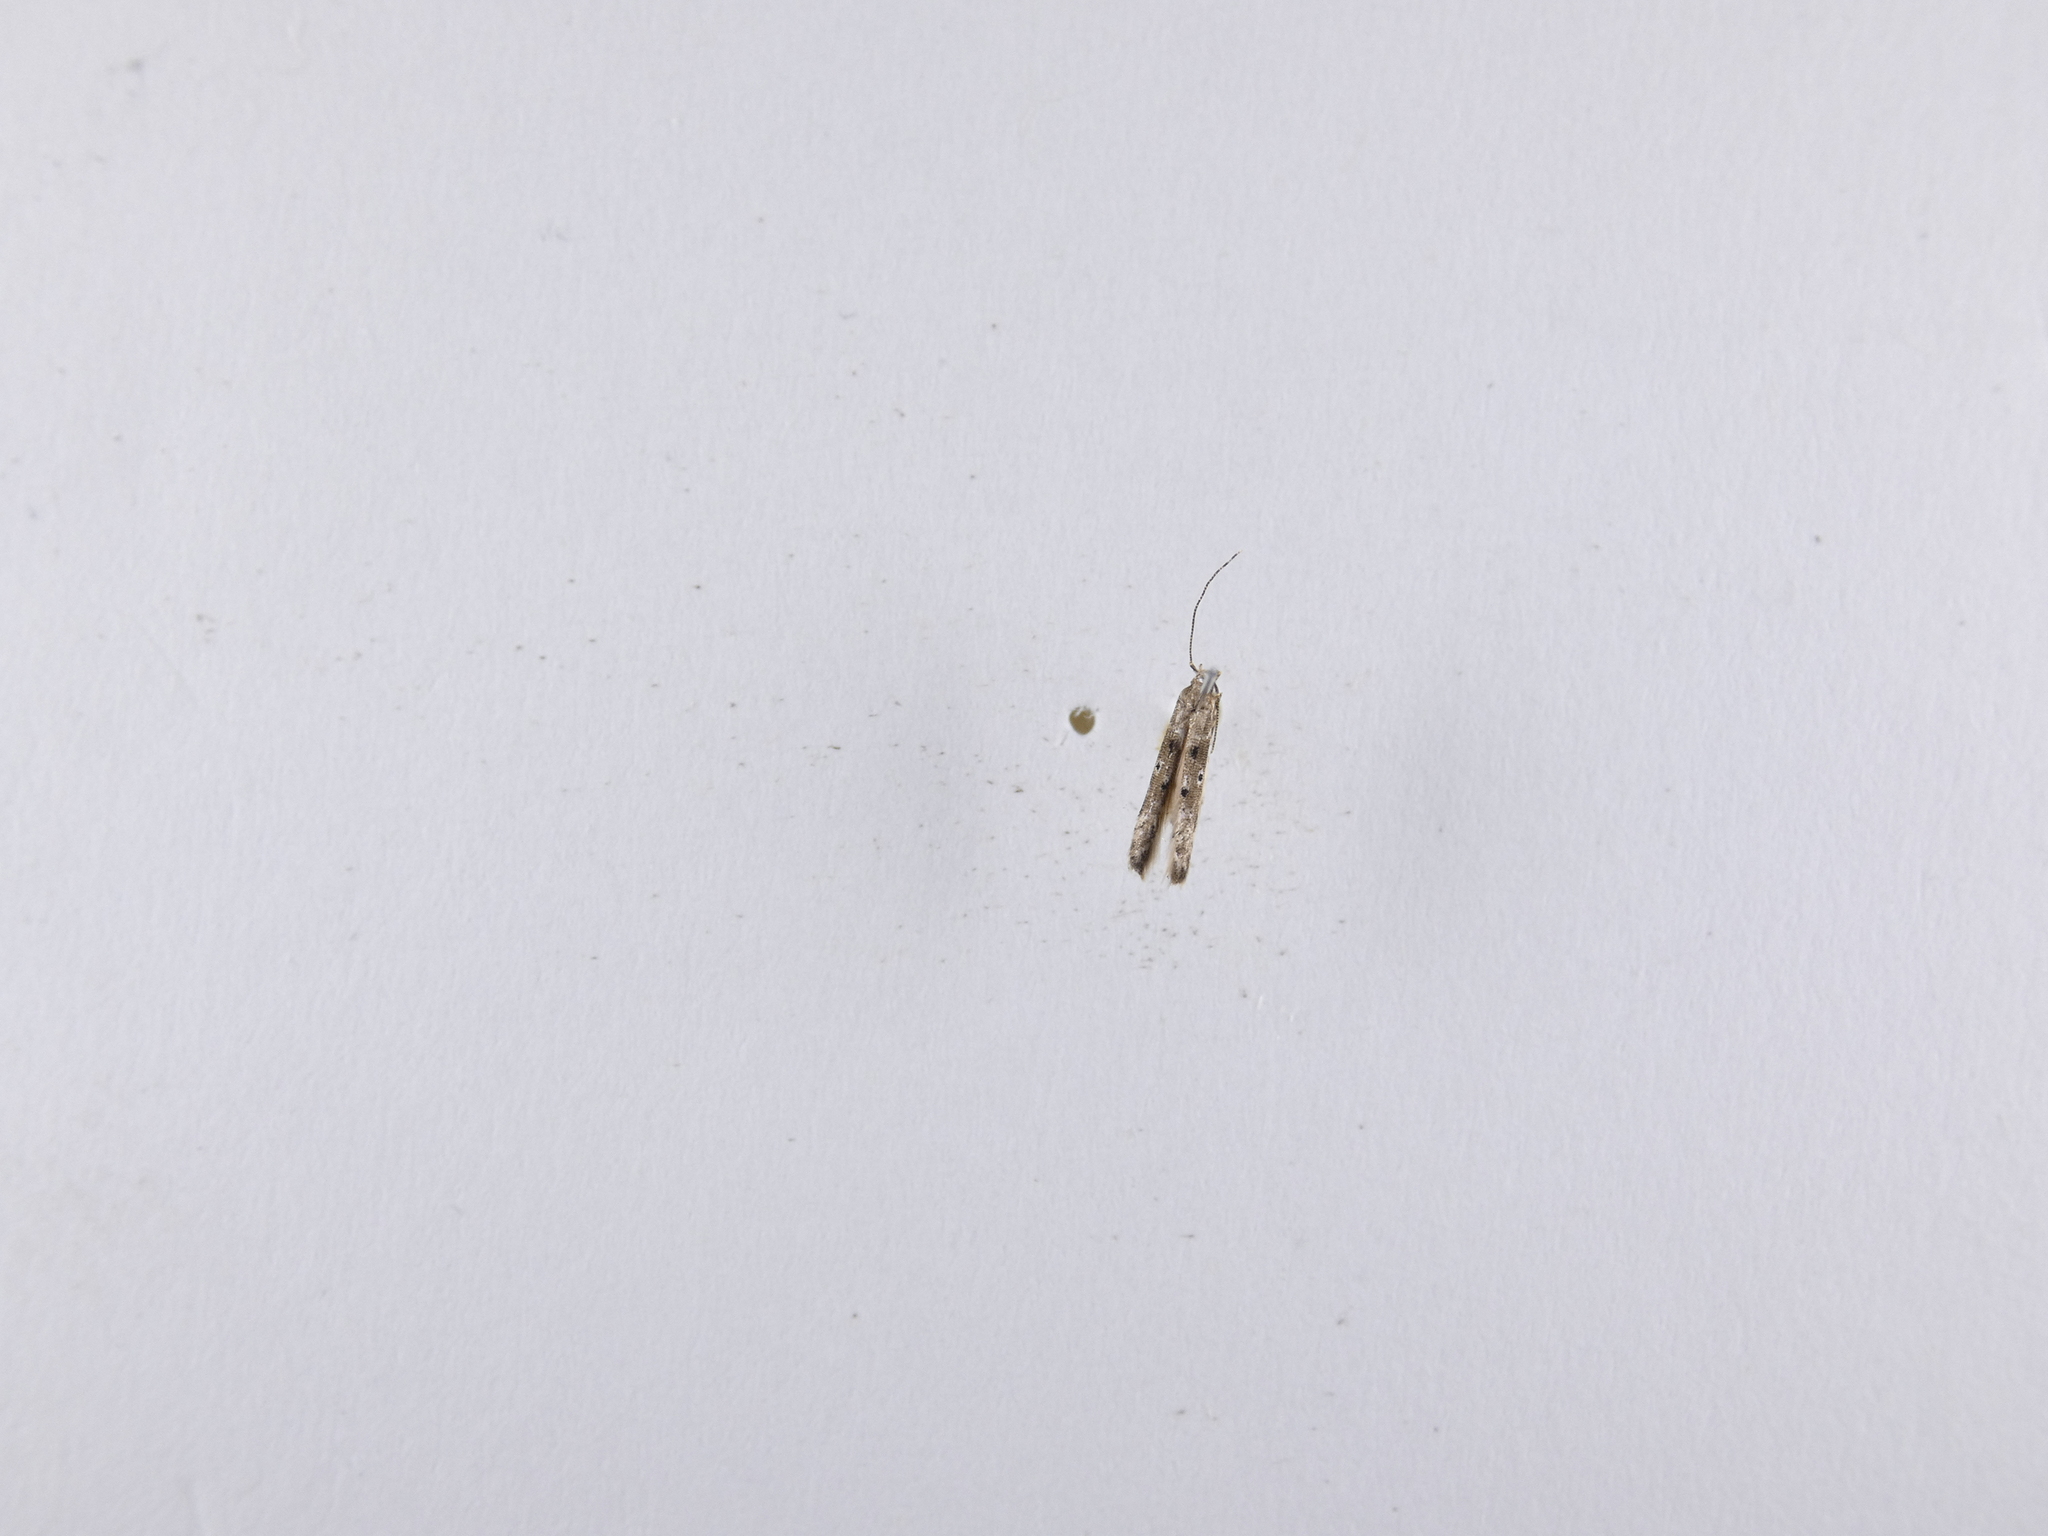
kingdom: Animalia
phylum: Arthropoda
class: Insecta
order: Lepidoptera
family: Elachistidae
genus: Microcolona
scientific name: Microcolona limodes
